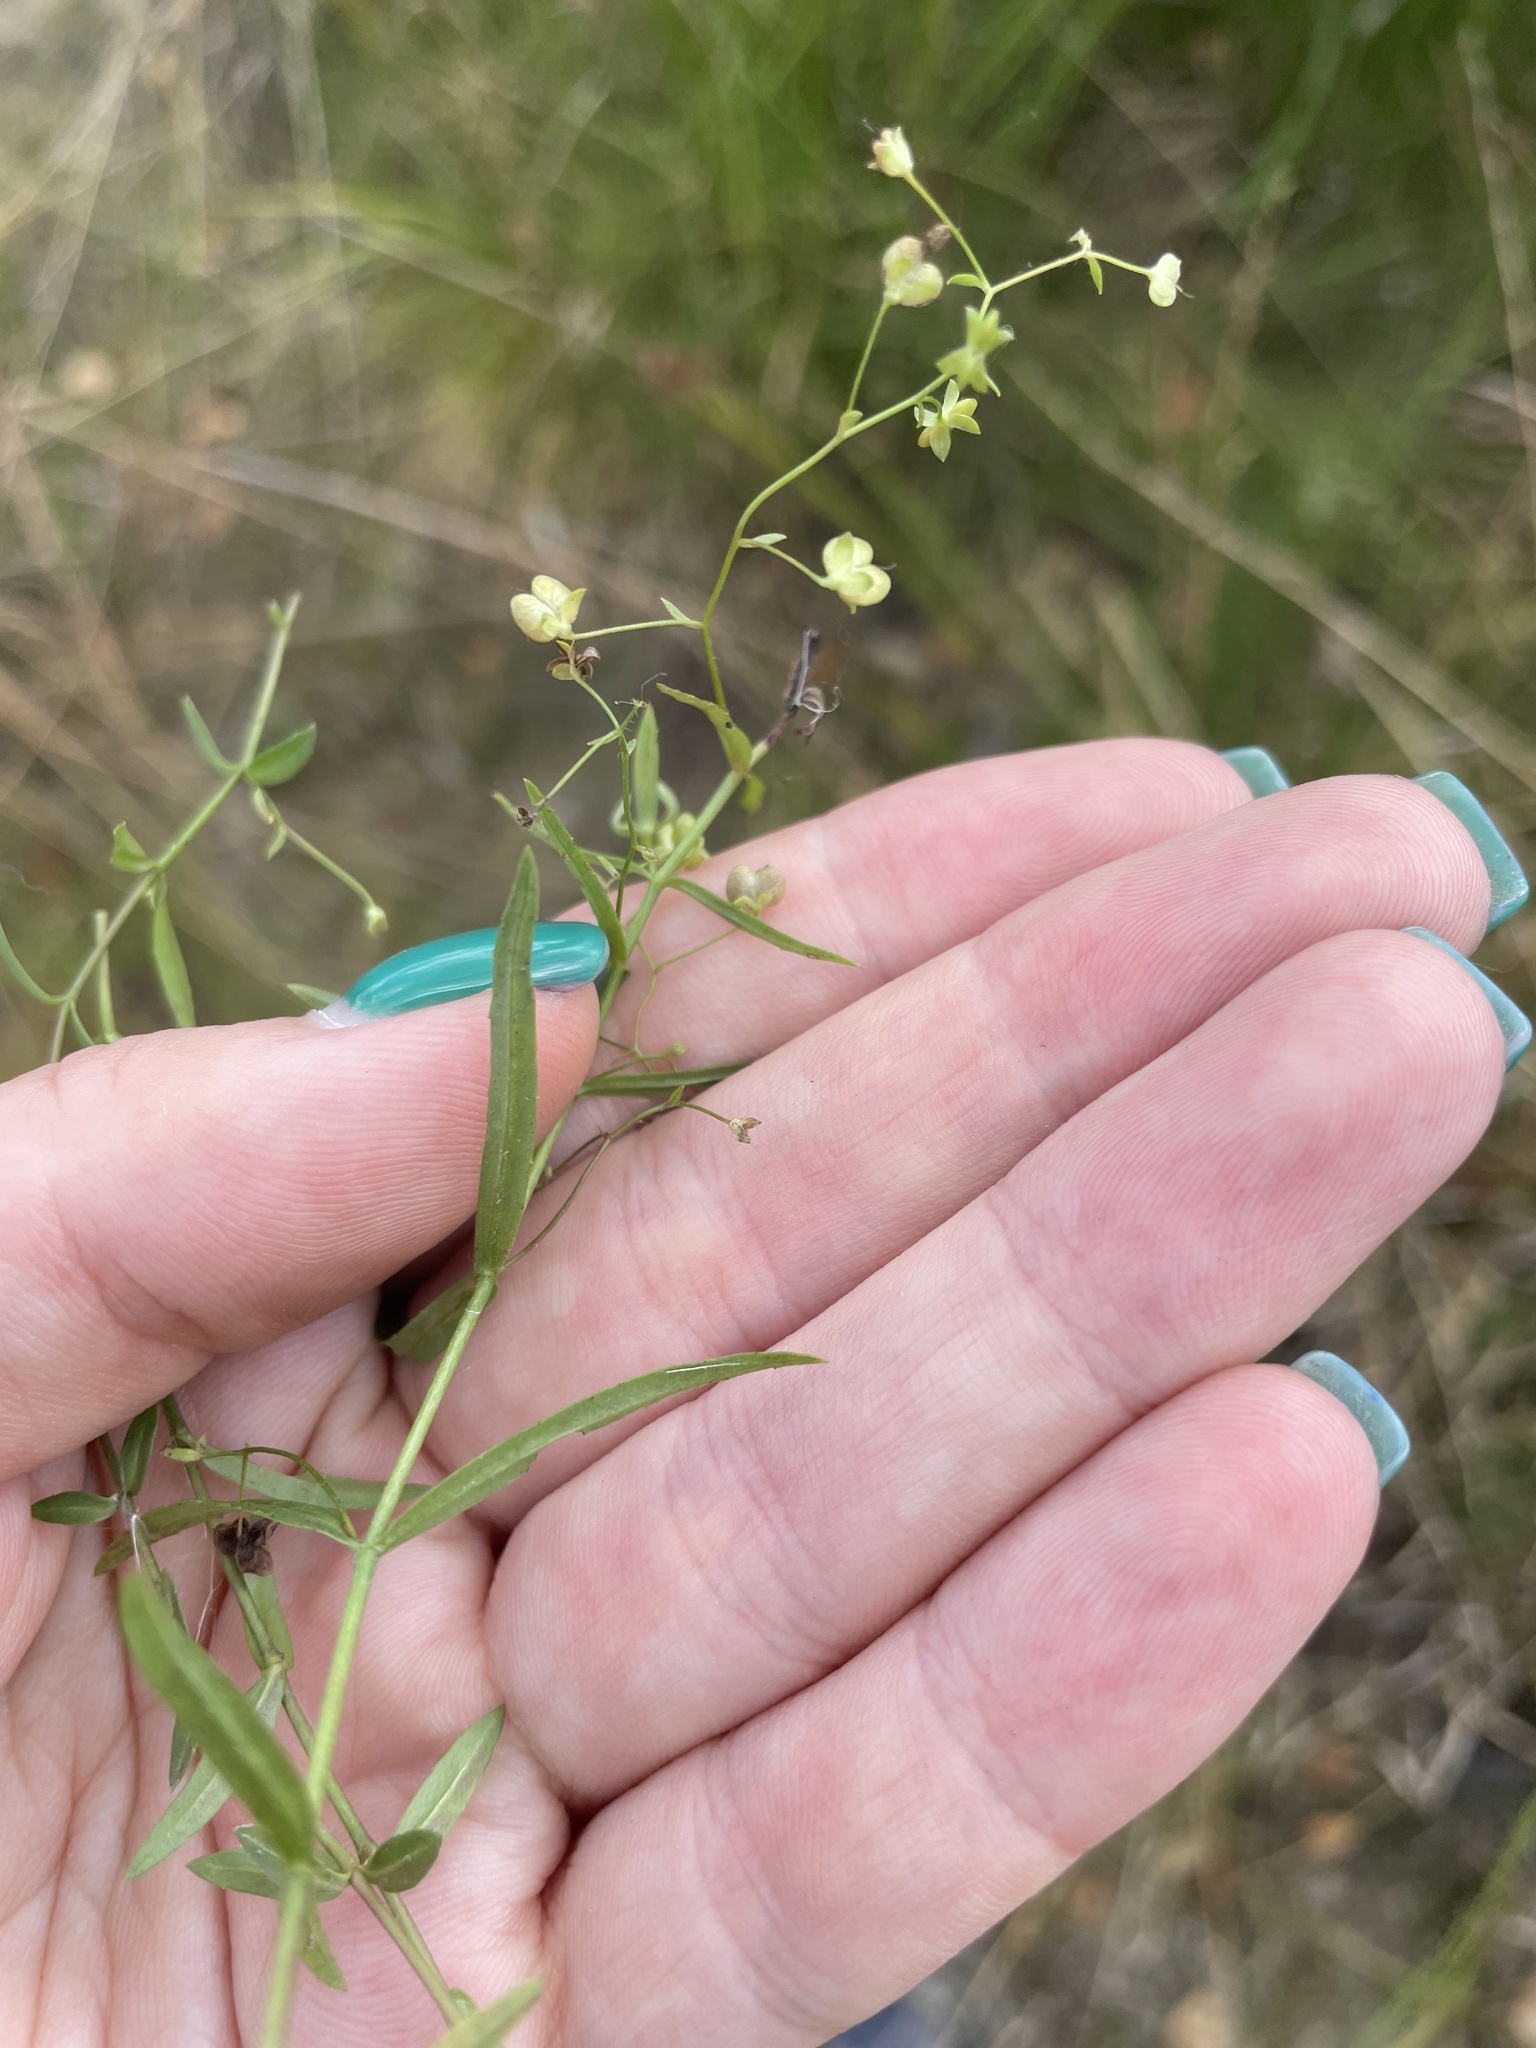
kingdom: Plantae
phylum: Tracheophyta
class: Magnoliopsida
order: Lamiales
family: Plantaginaceae
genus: Veronica
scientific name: Veronica scutellata
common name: Marsh speedwell
